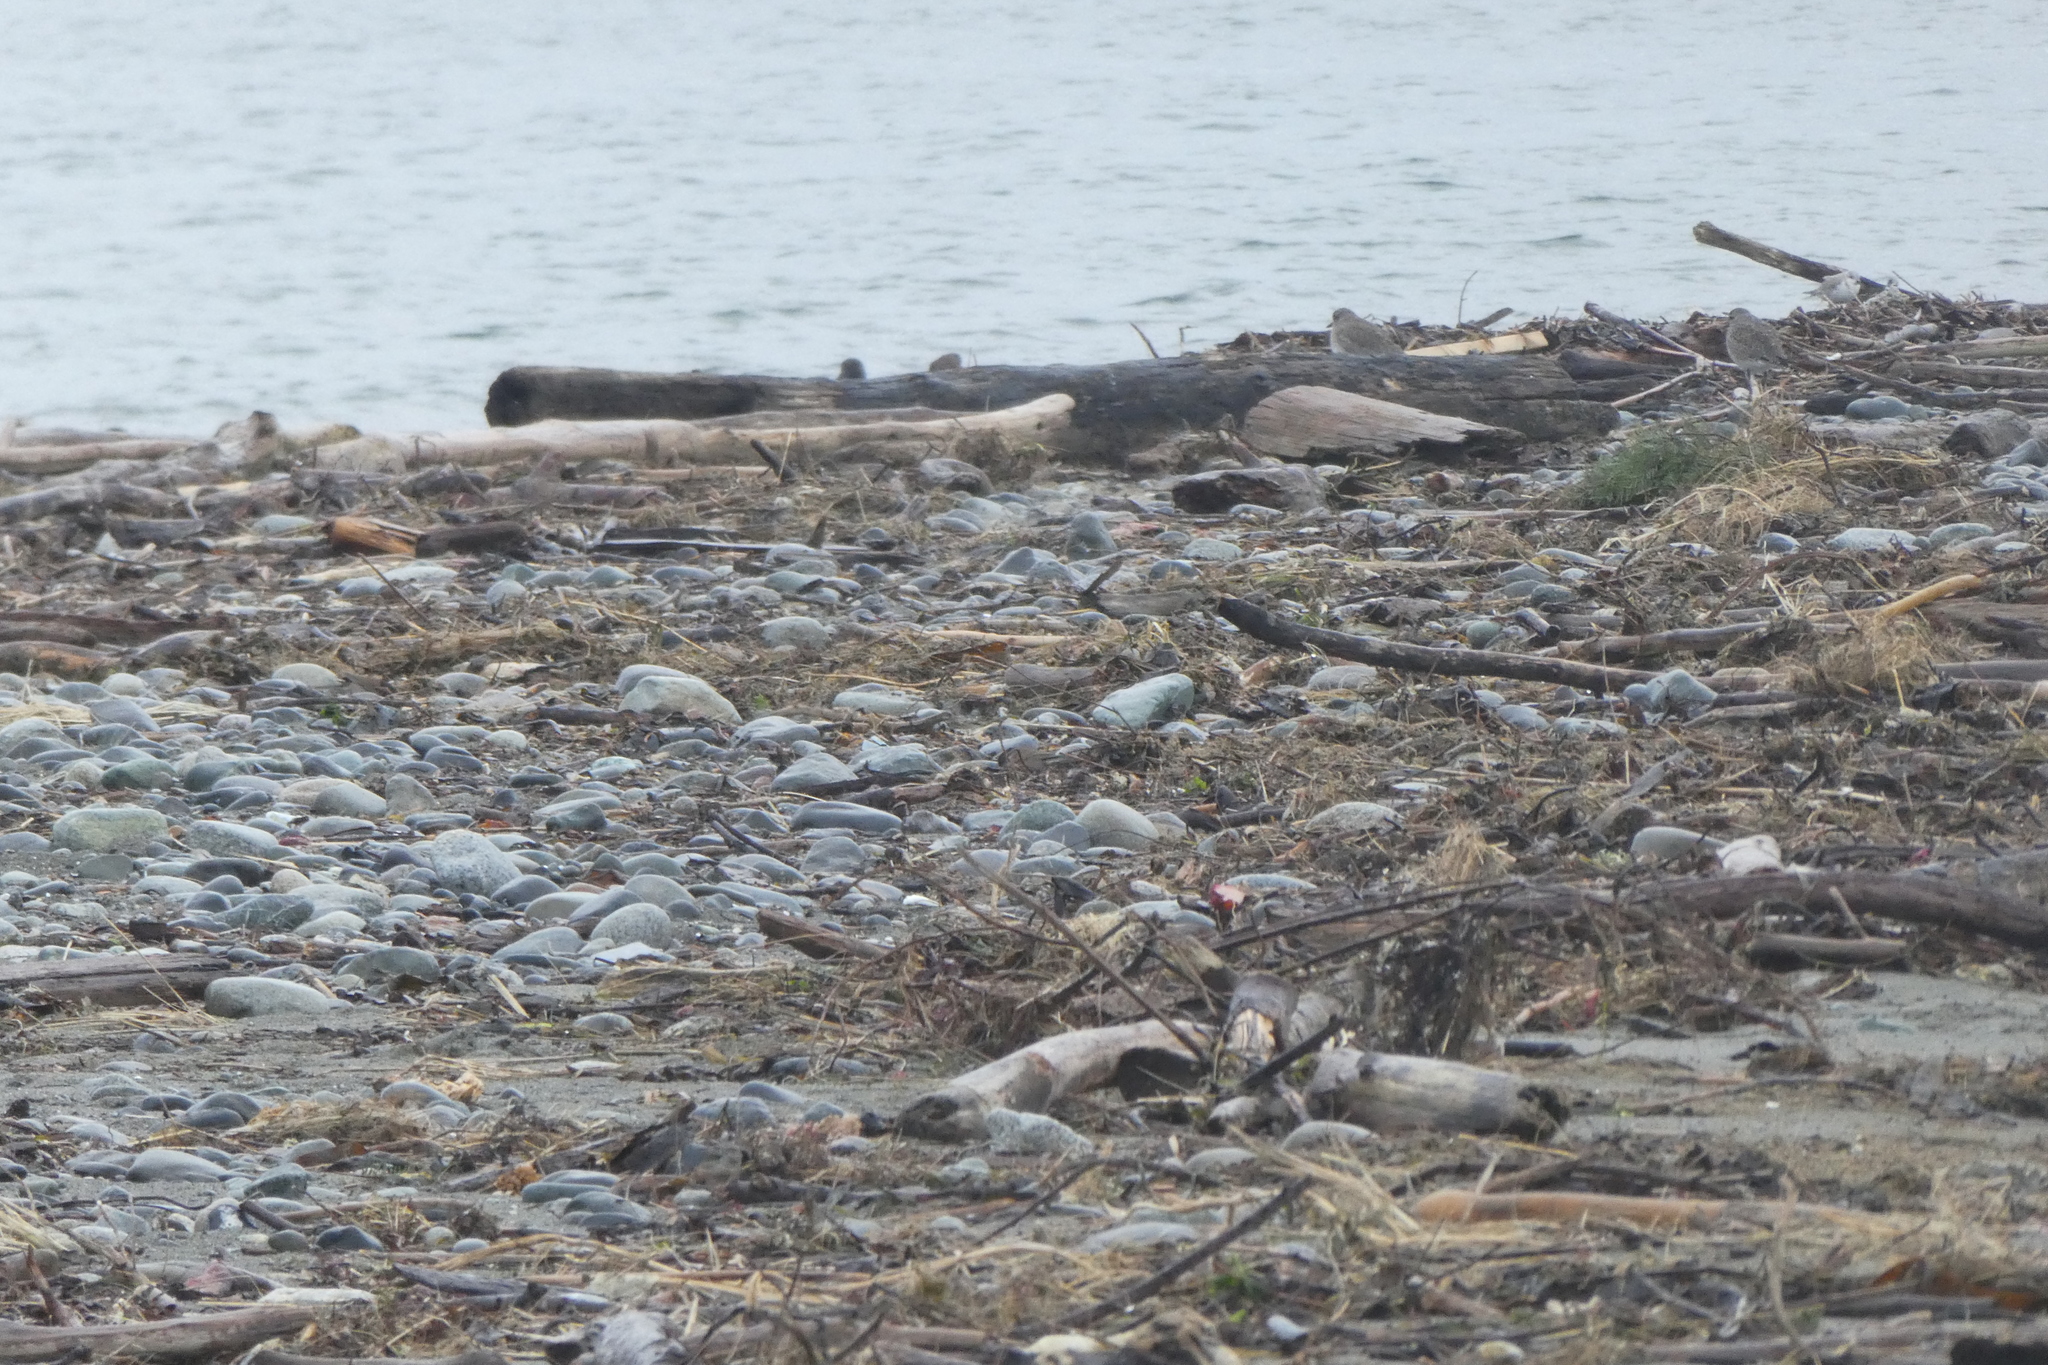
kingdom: Animalia
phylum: Chordata
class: Aves
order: Passeriformes
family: Passerellidae
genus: Junco
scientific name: Junco hyemalis
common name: Dark-eyed junco
